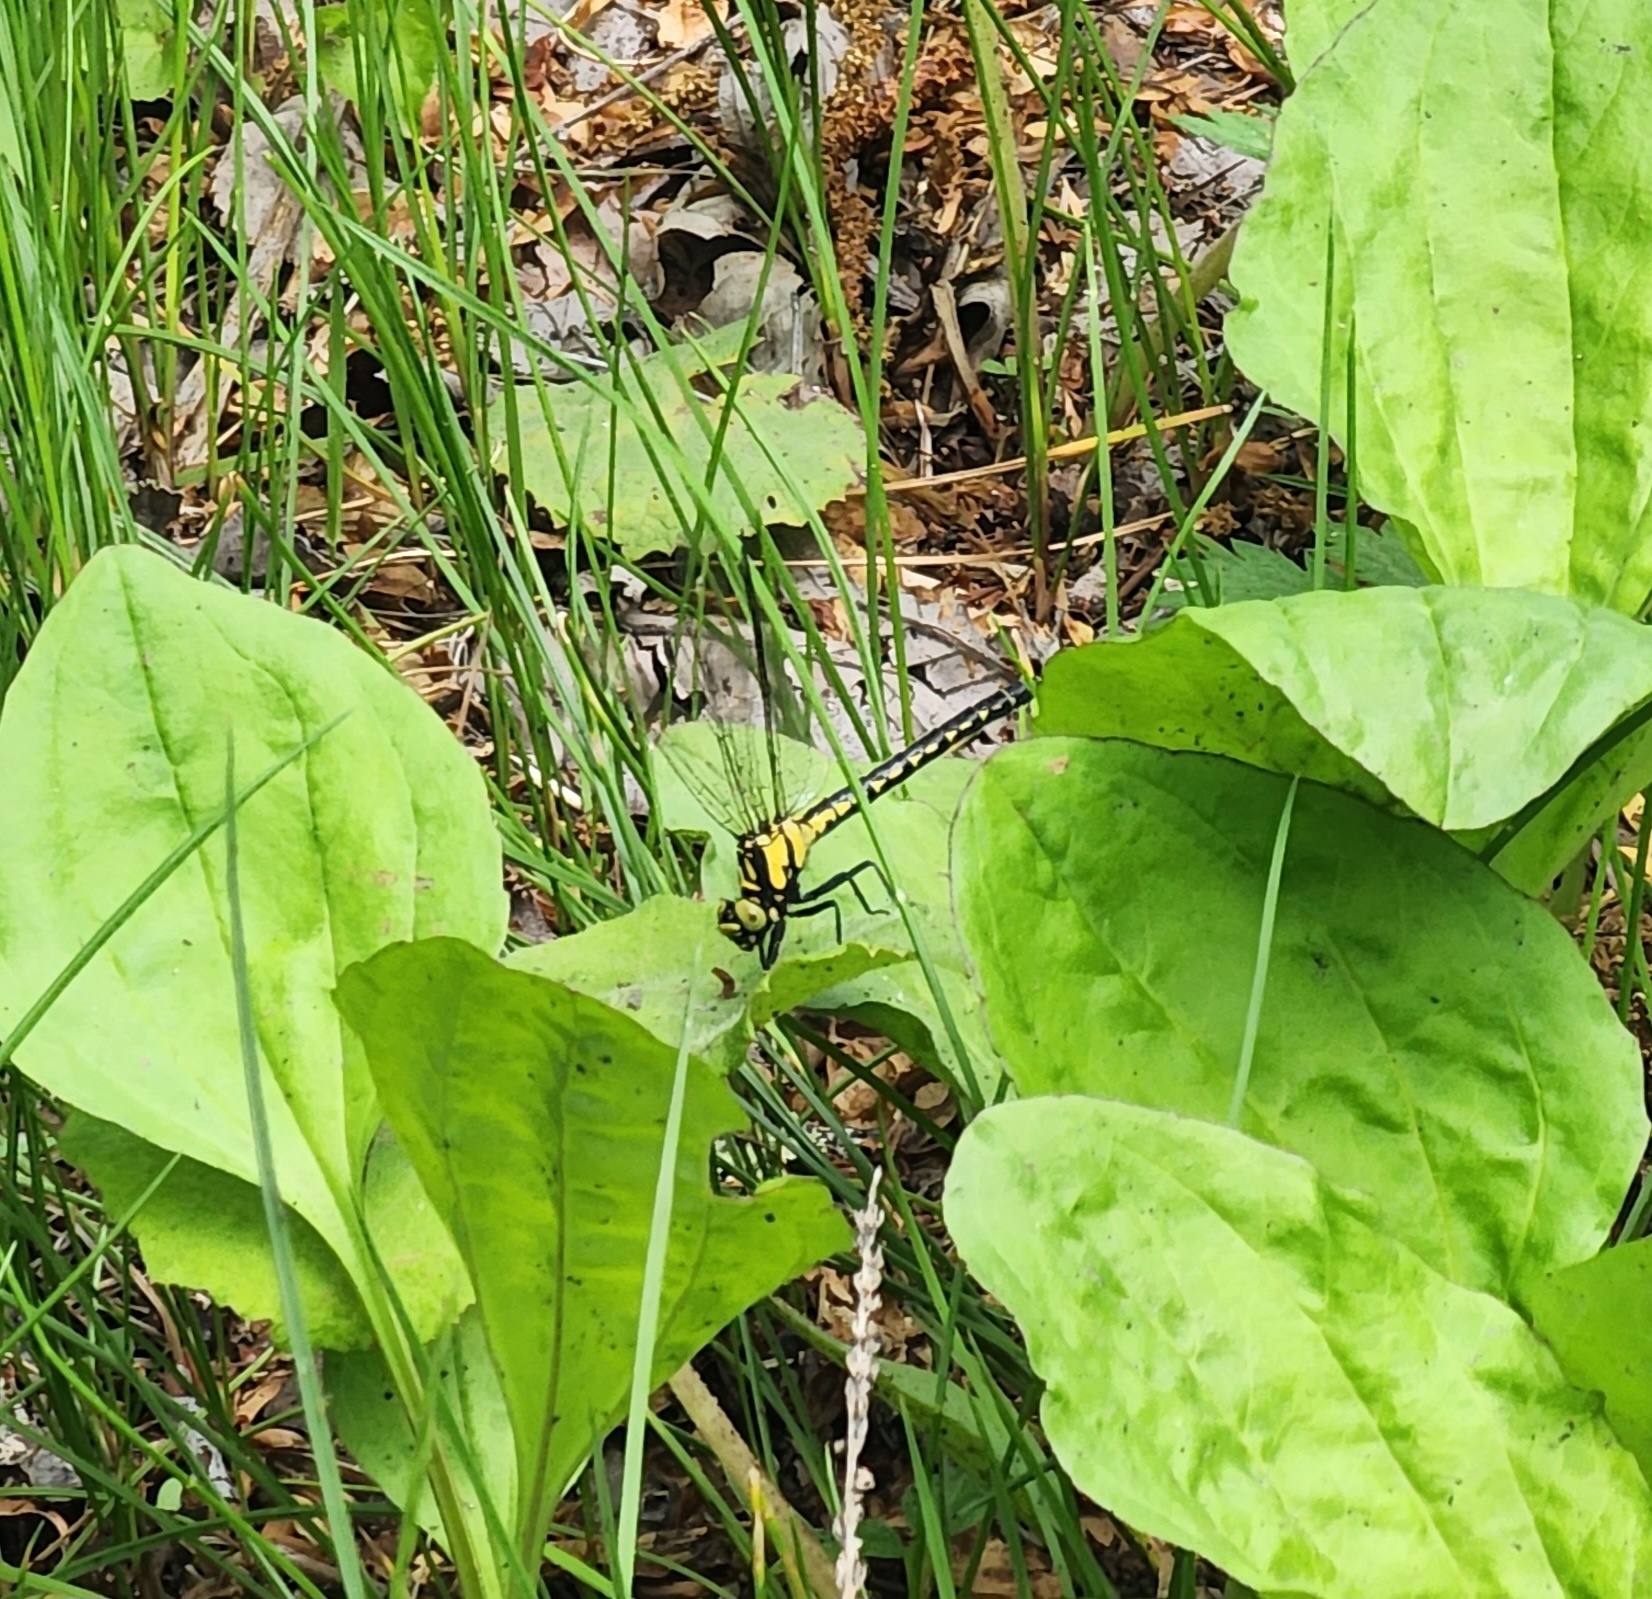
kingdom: Animalia
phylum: Arthropoda
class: Insecta
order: Odonata
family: Gomphidae
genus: Lanthus
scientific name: Lanthus fujiacus
